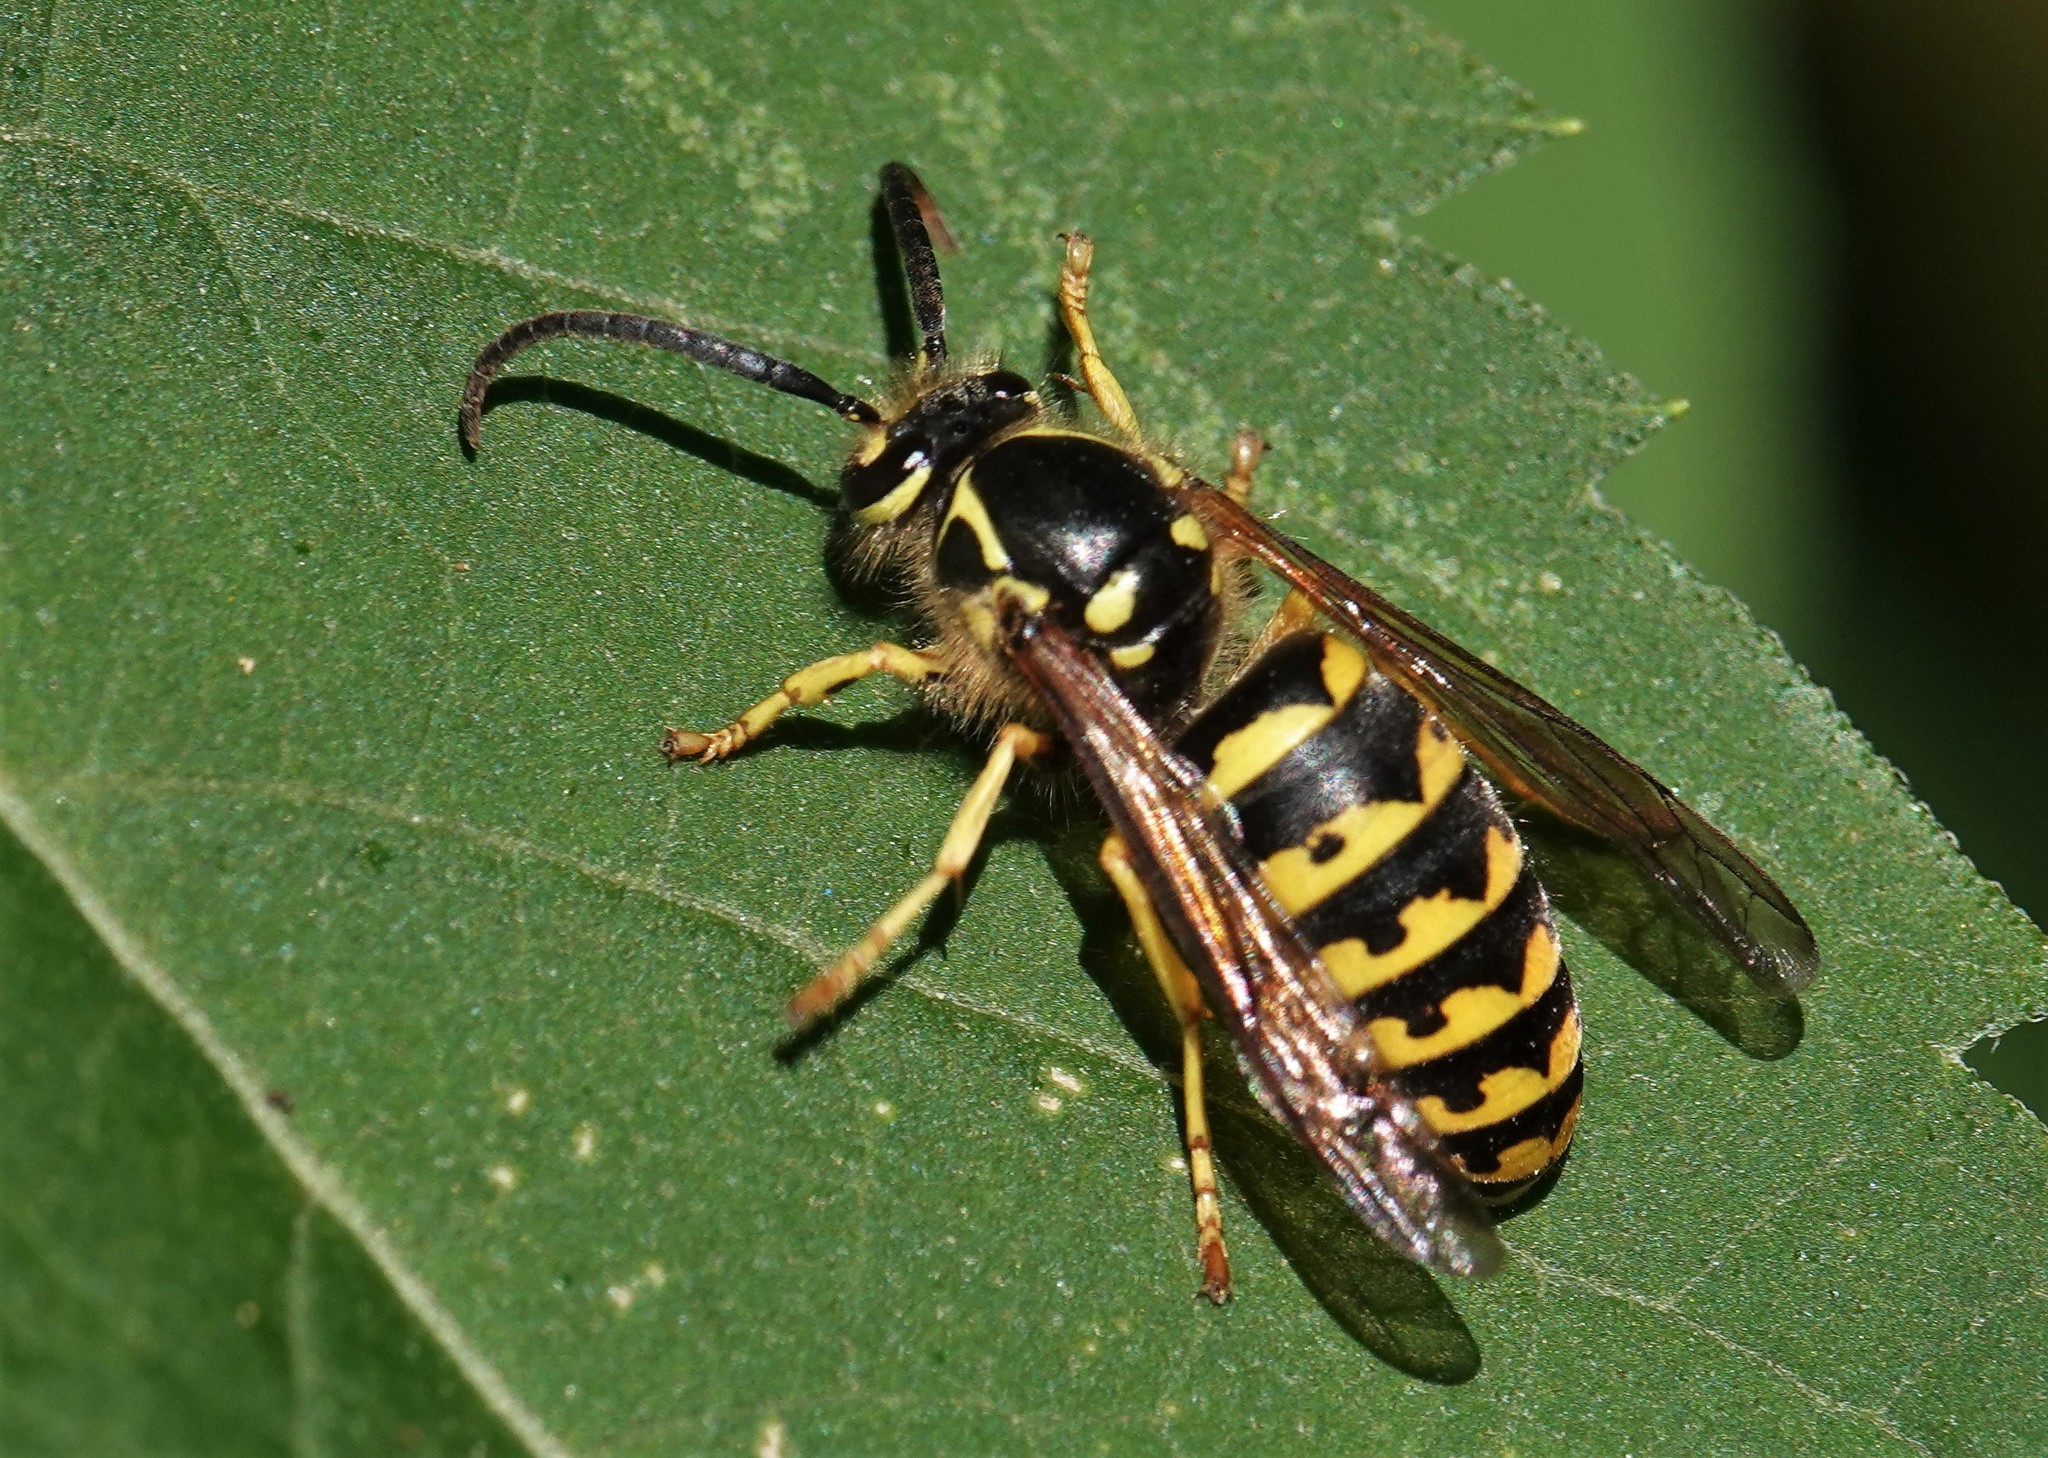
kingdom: Animalia
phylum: Arthropoda
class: Insecta
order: Hymenoptera
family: Vespidae
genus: Dolichovespula
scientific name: Dolichovespula arenaria
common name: Aerial yellowjacket
